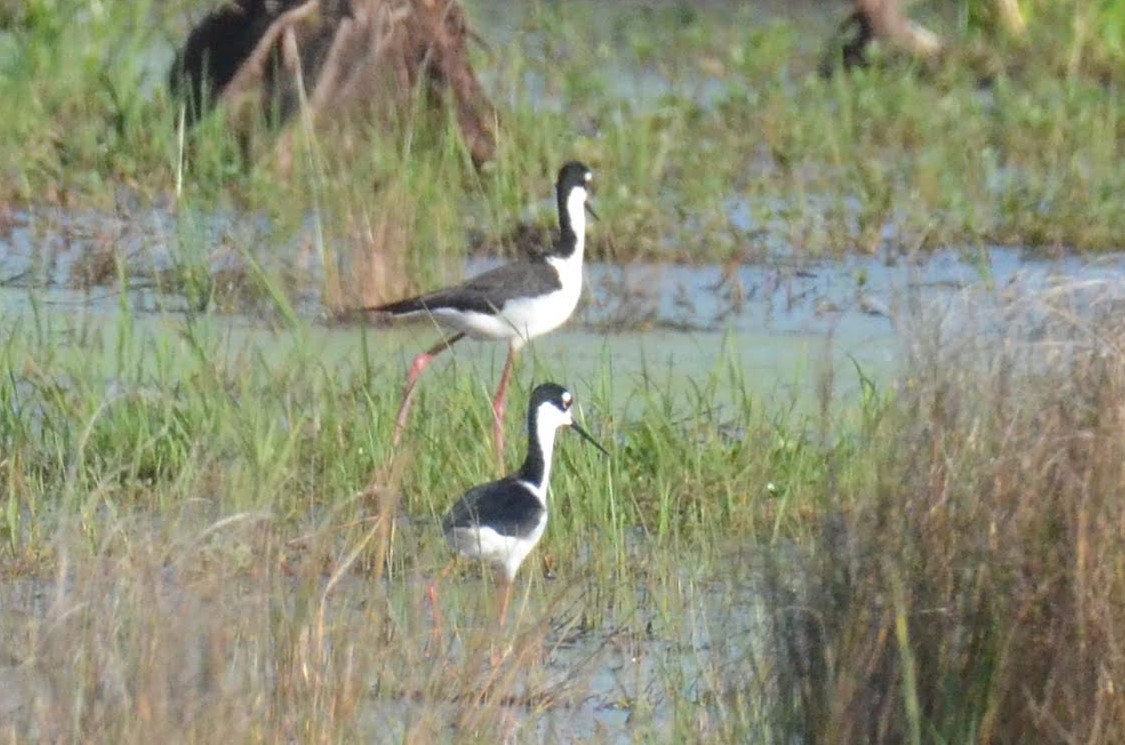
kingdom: Animalia
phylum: Chordata
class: Aves
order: Charadriiformes
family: Recurvirostridae
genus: Himantopus
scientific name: Himantopus mexicanus
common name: Black-necked stilt
